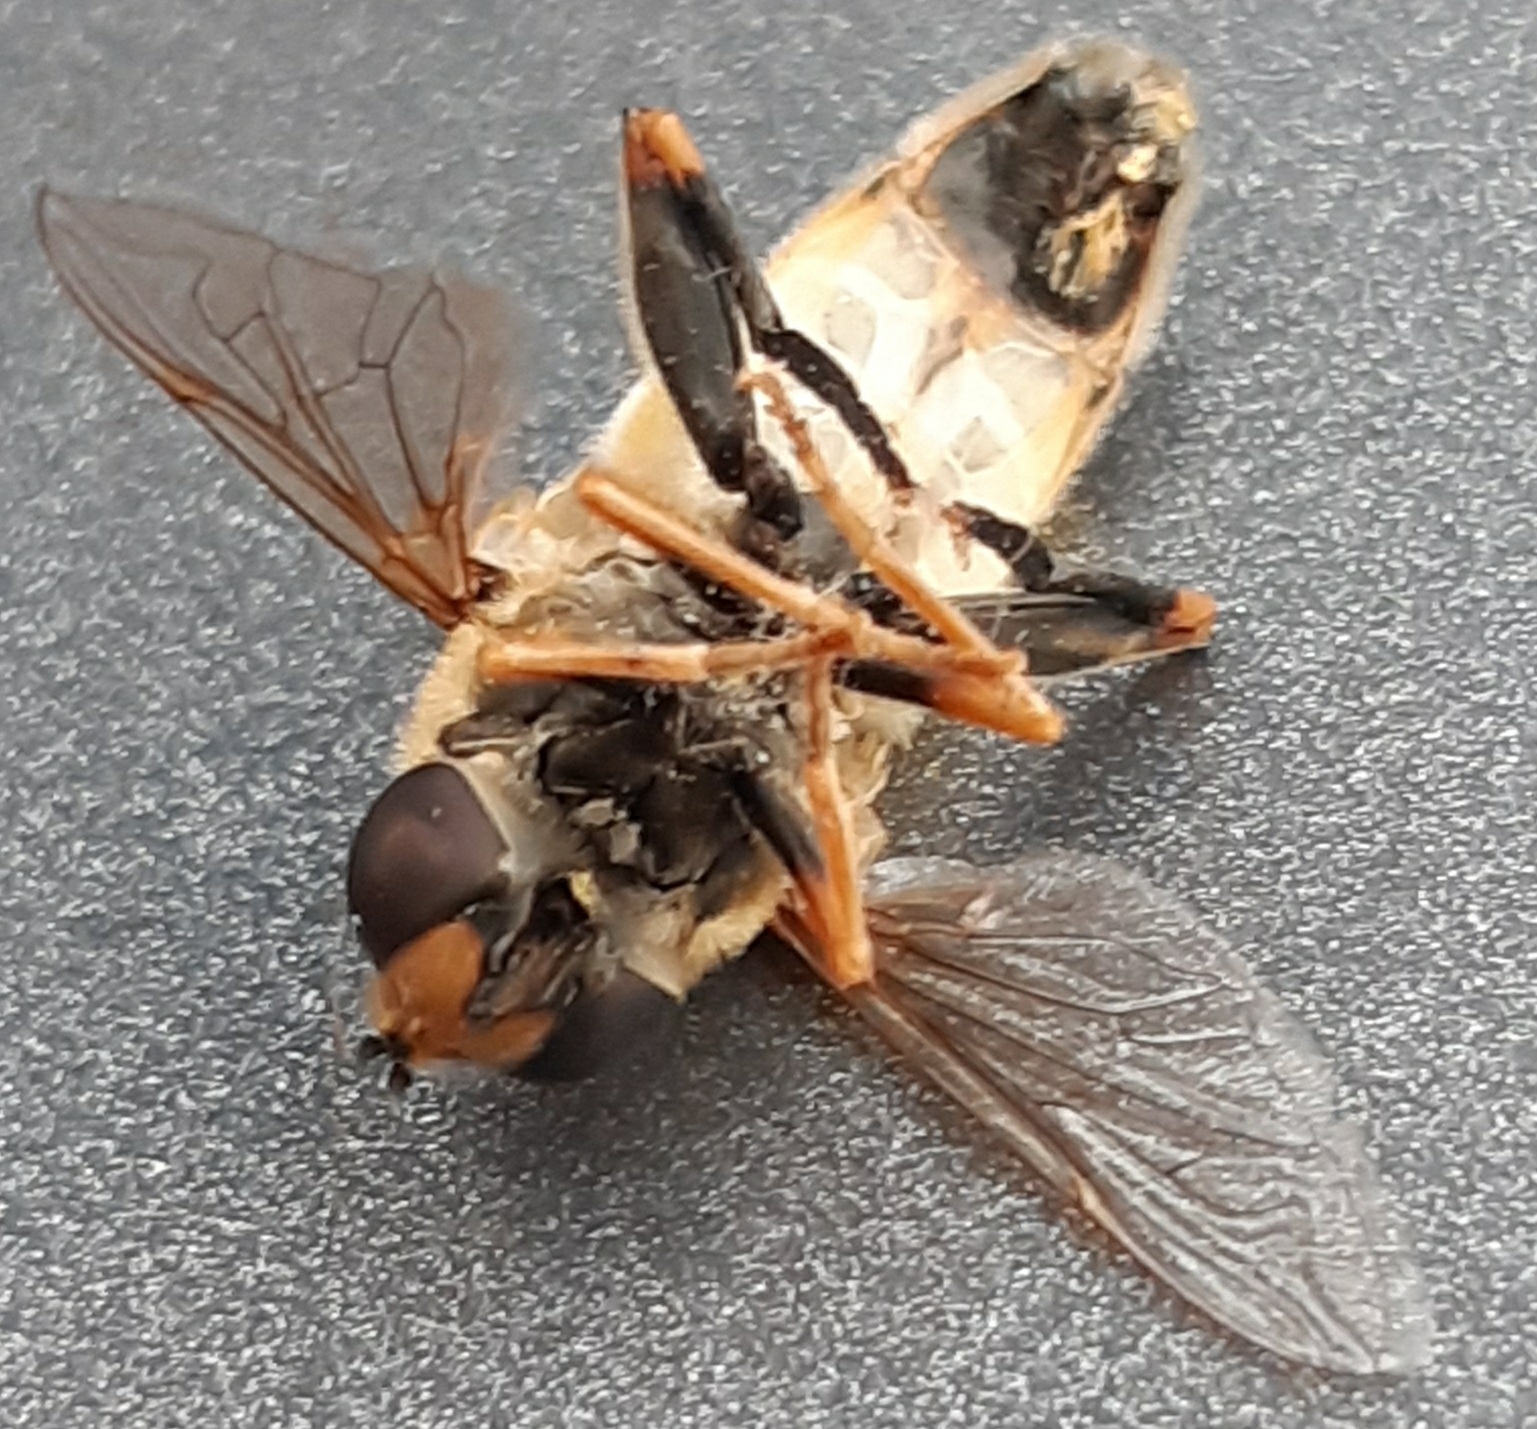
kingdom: Animalia
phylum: Arthropoda
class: Insecta
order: Diptera
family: Syrphidae
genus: Helophilus
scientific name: Helophilus trivittatus
